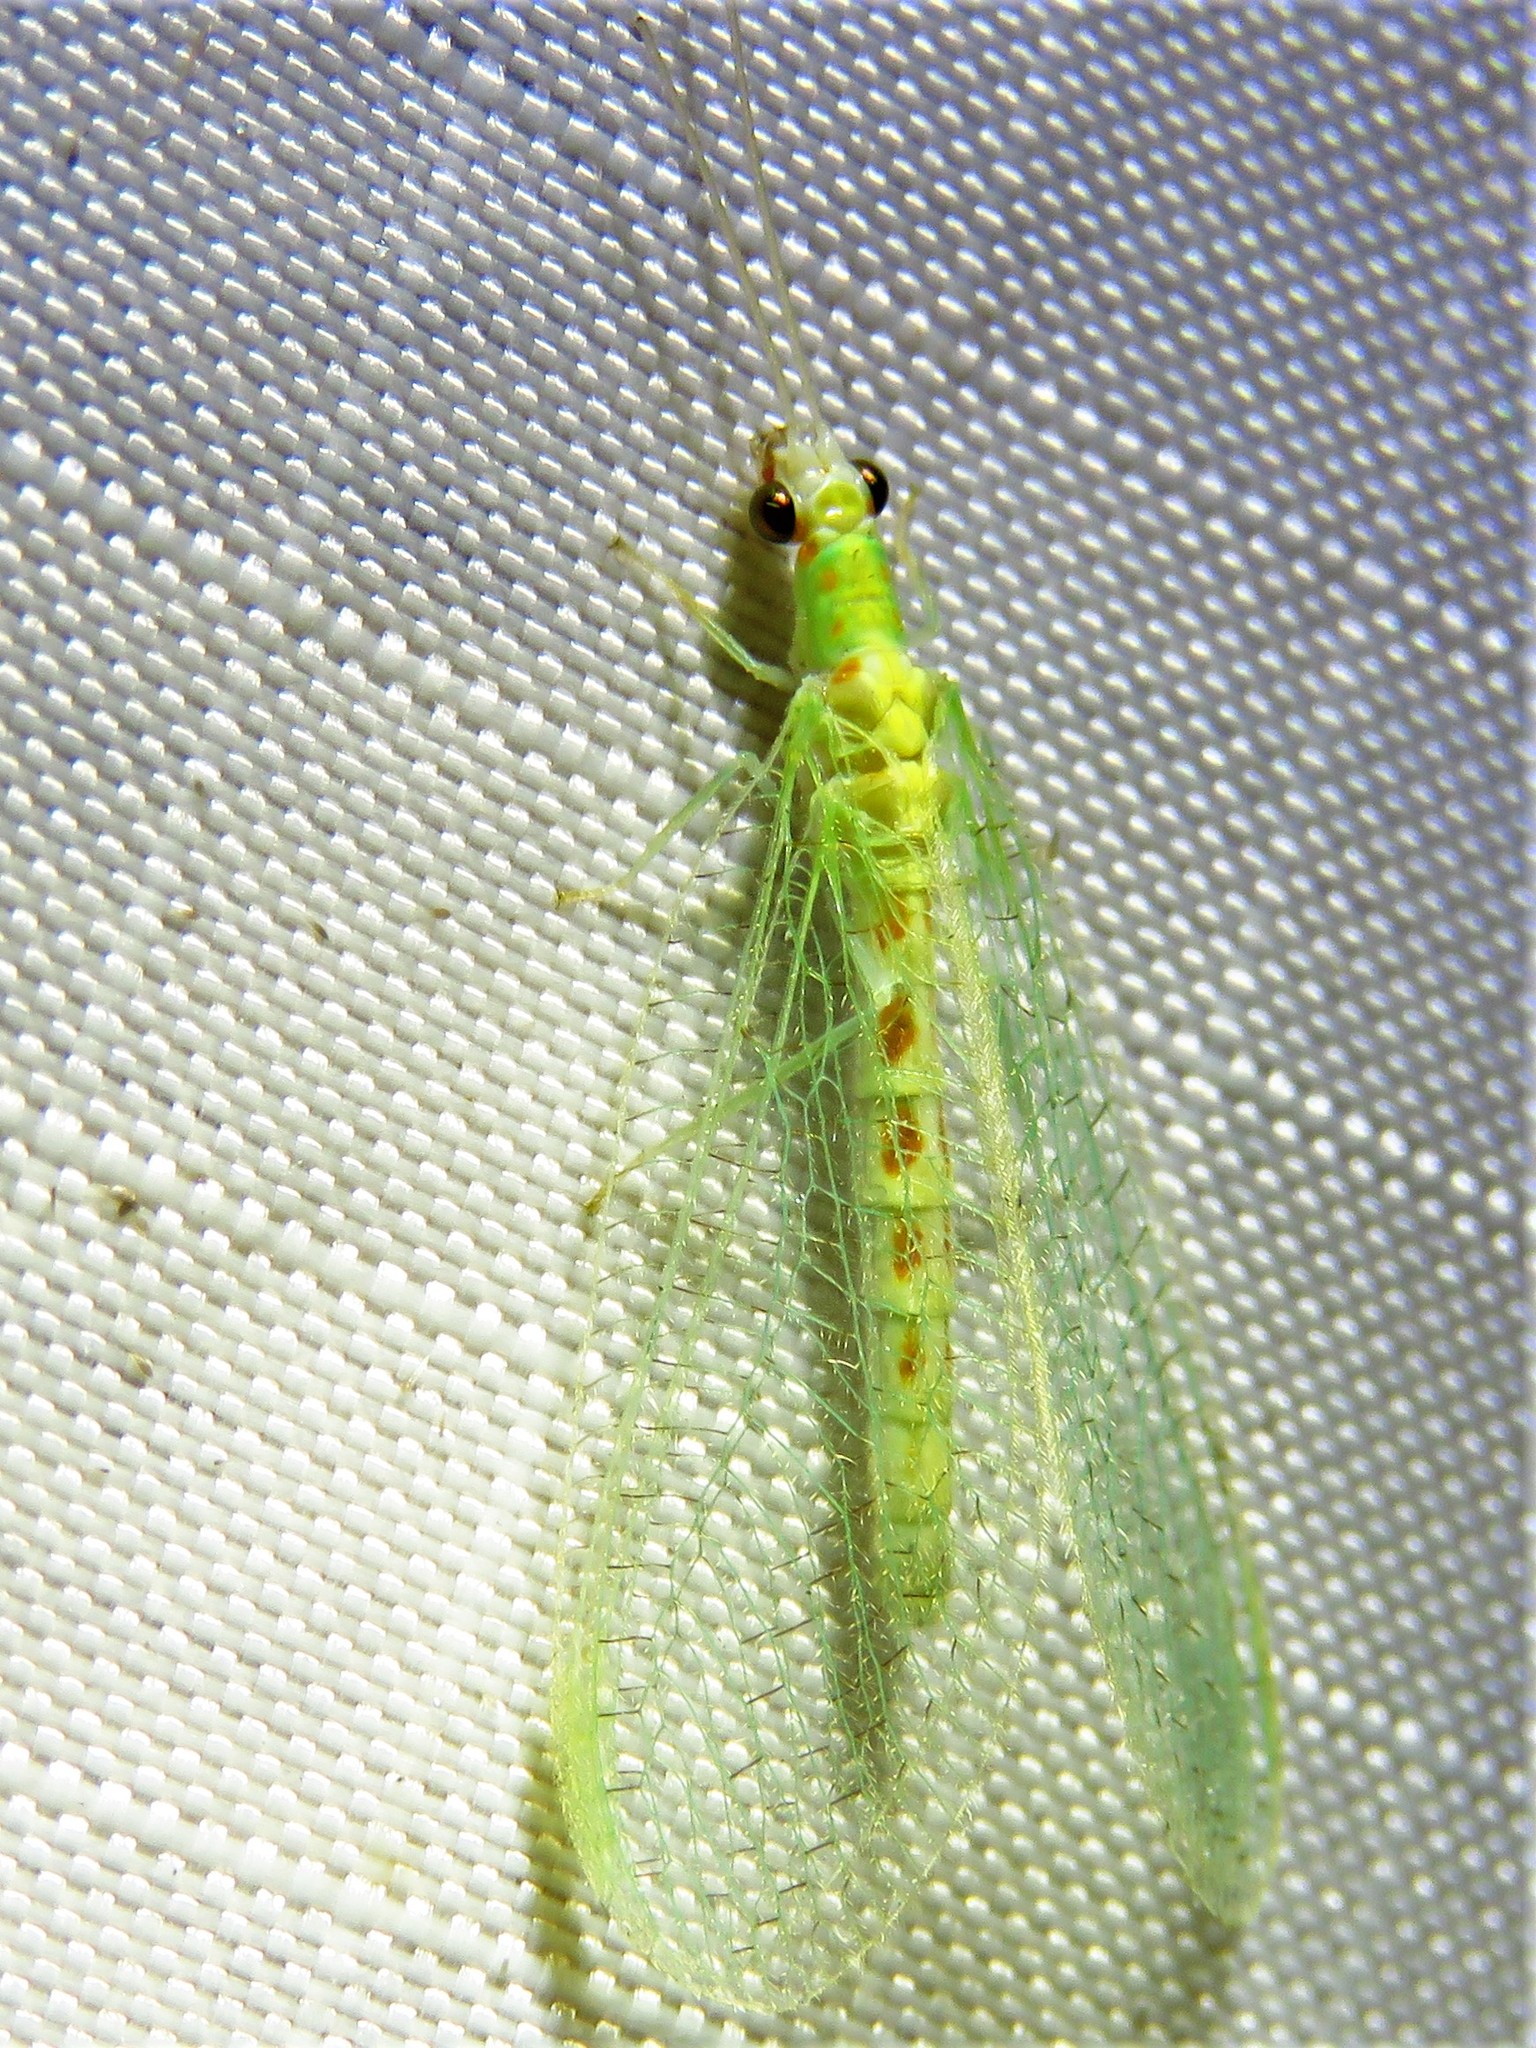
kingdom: Animalia
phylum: Arthropoda
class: Insecta
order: Neuroptera
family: Chrysopidae
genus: Chrysopa
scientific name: Chrysopa quadripunctata
